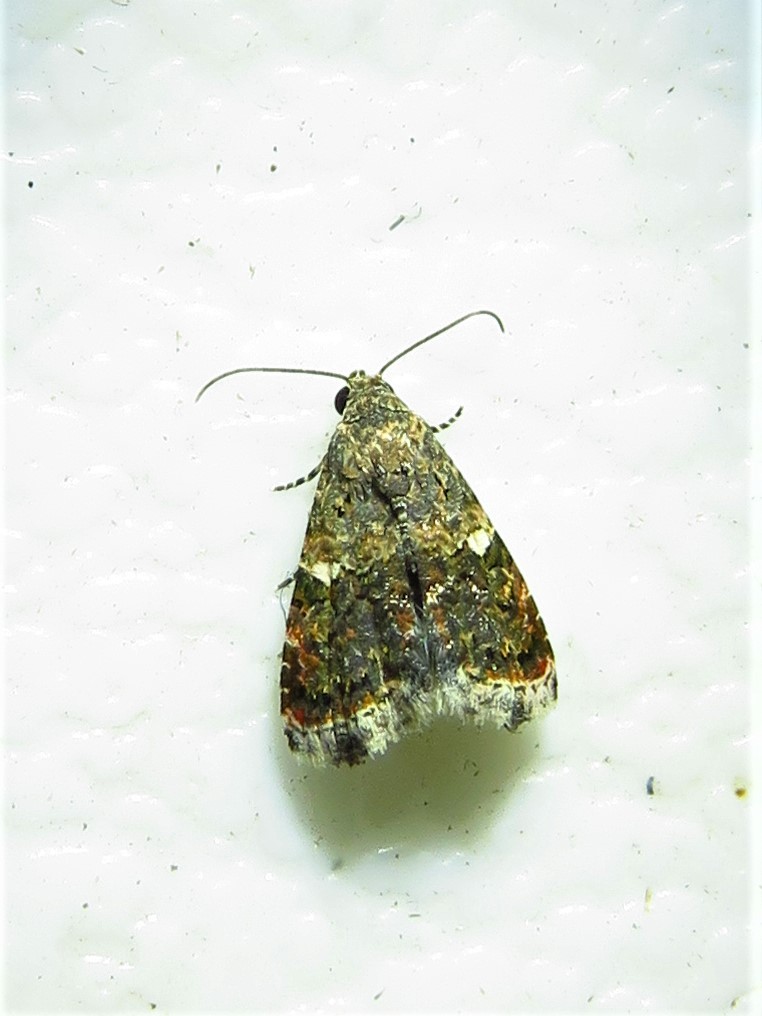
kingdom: Animalia
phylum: Arthropoda
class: Insecta
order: Lepidoptera
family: Noctuidae
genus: Tripudia
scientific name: Tripudia luxuriosa
